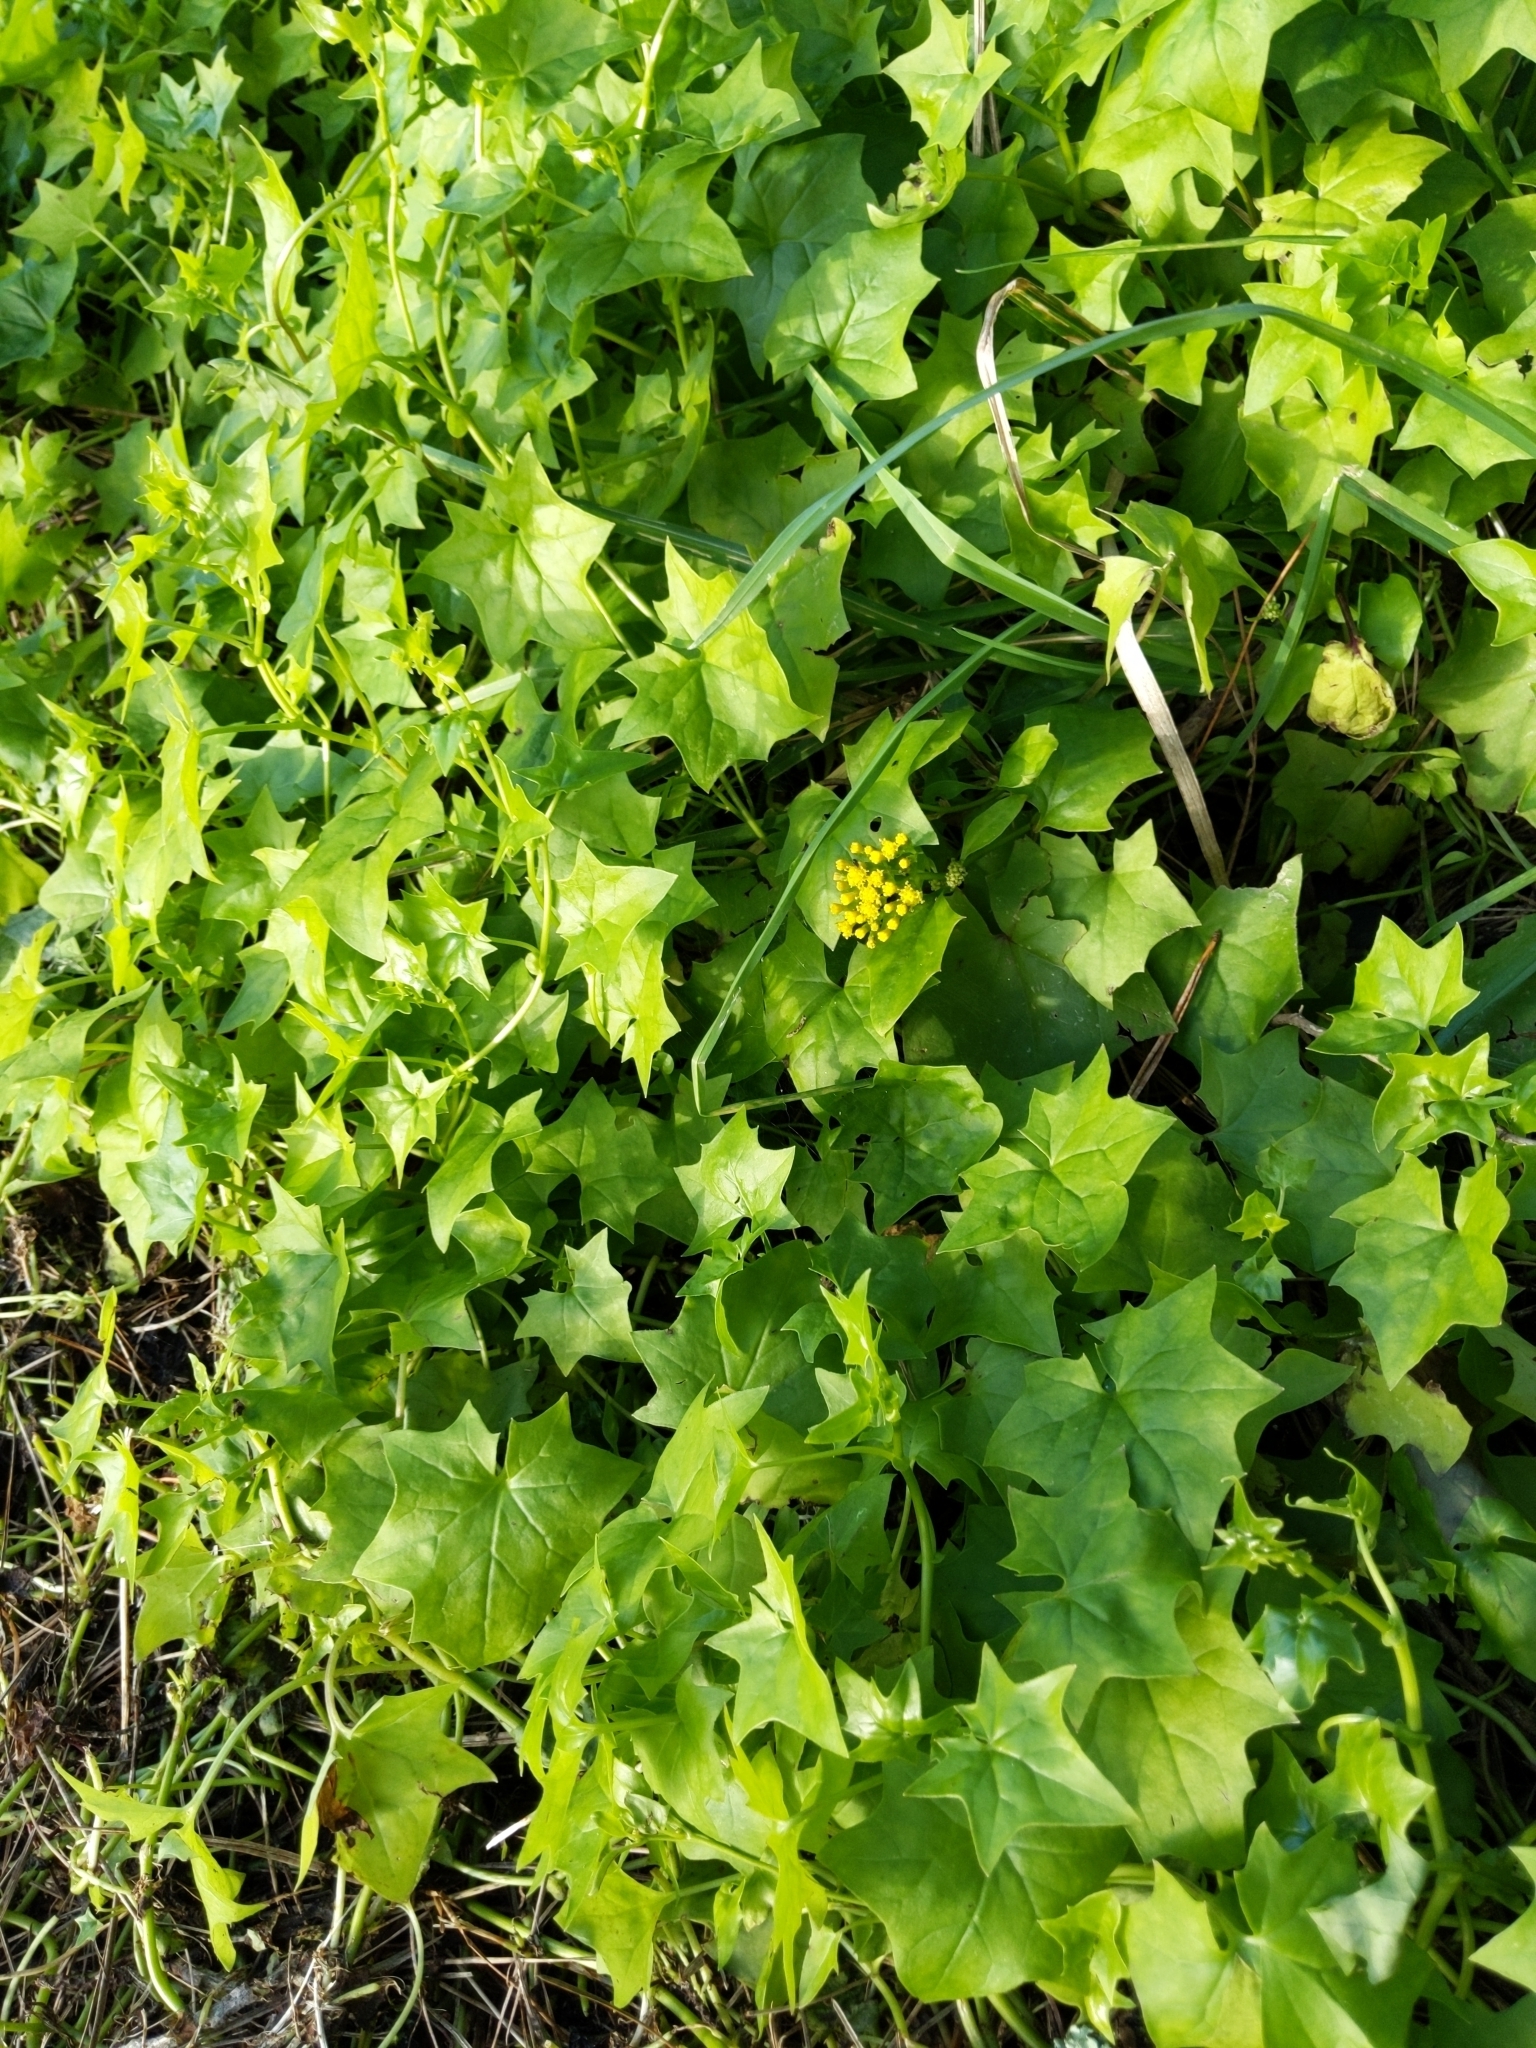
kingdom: Plantae
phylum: Tracheophyta
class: Magnoliopsida
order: Asterales
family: Asteraceae
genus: Delairea
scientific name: Delairea odorata
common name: Cape-ivy
